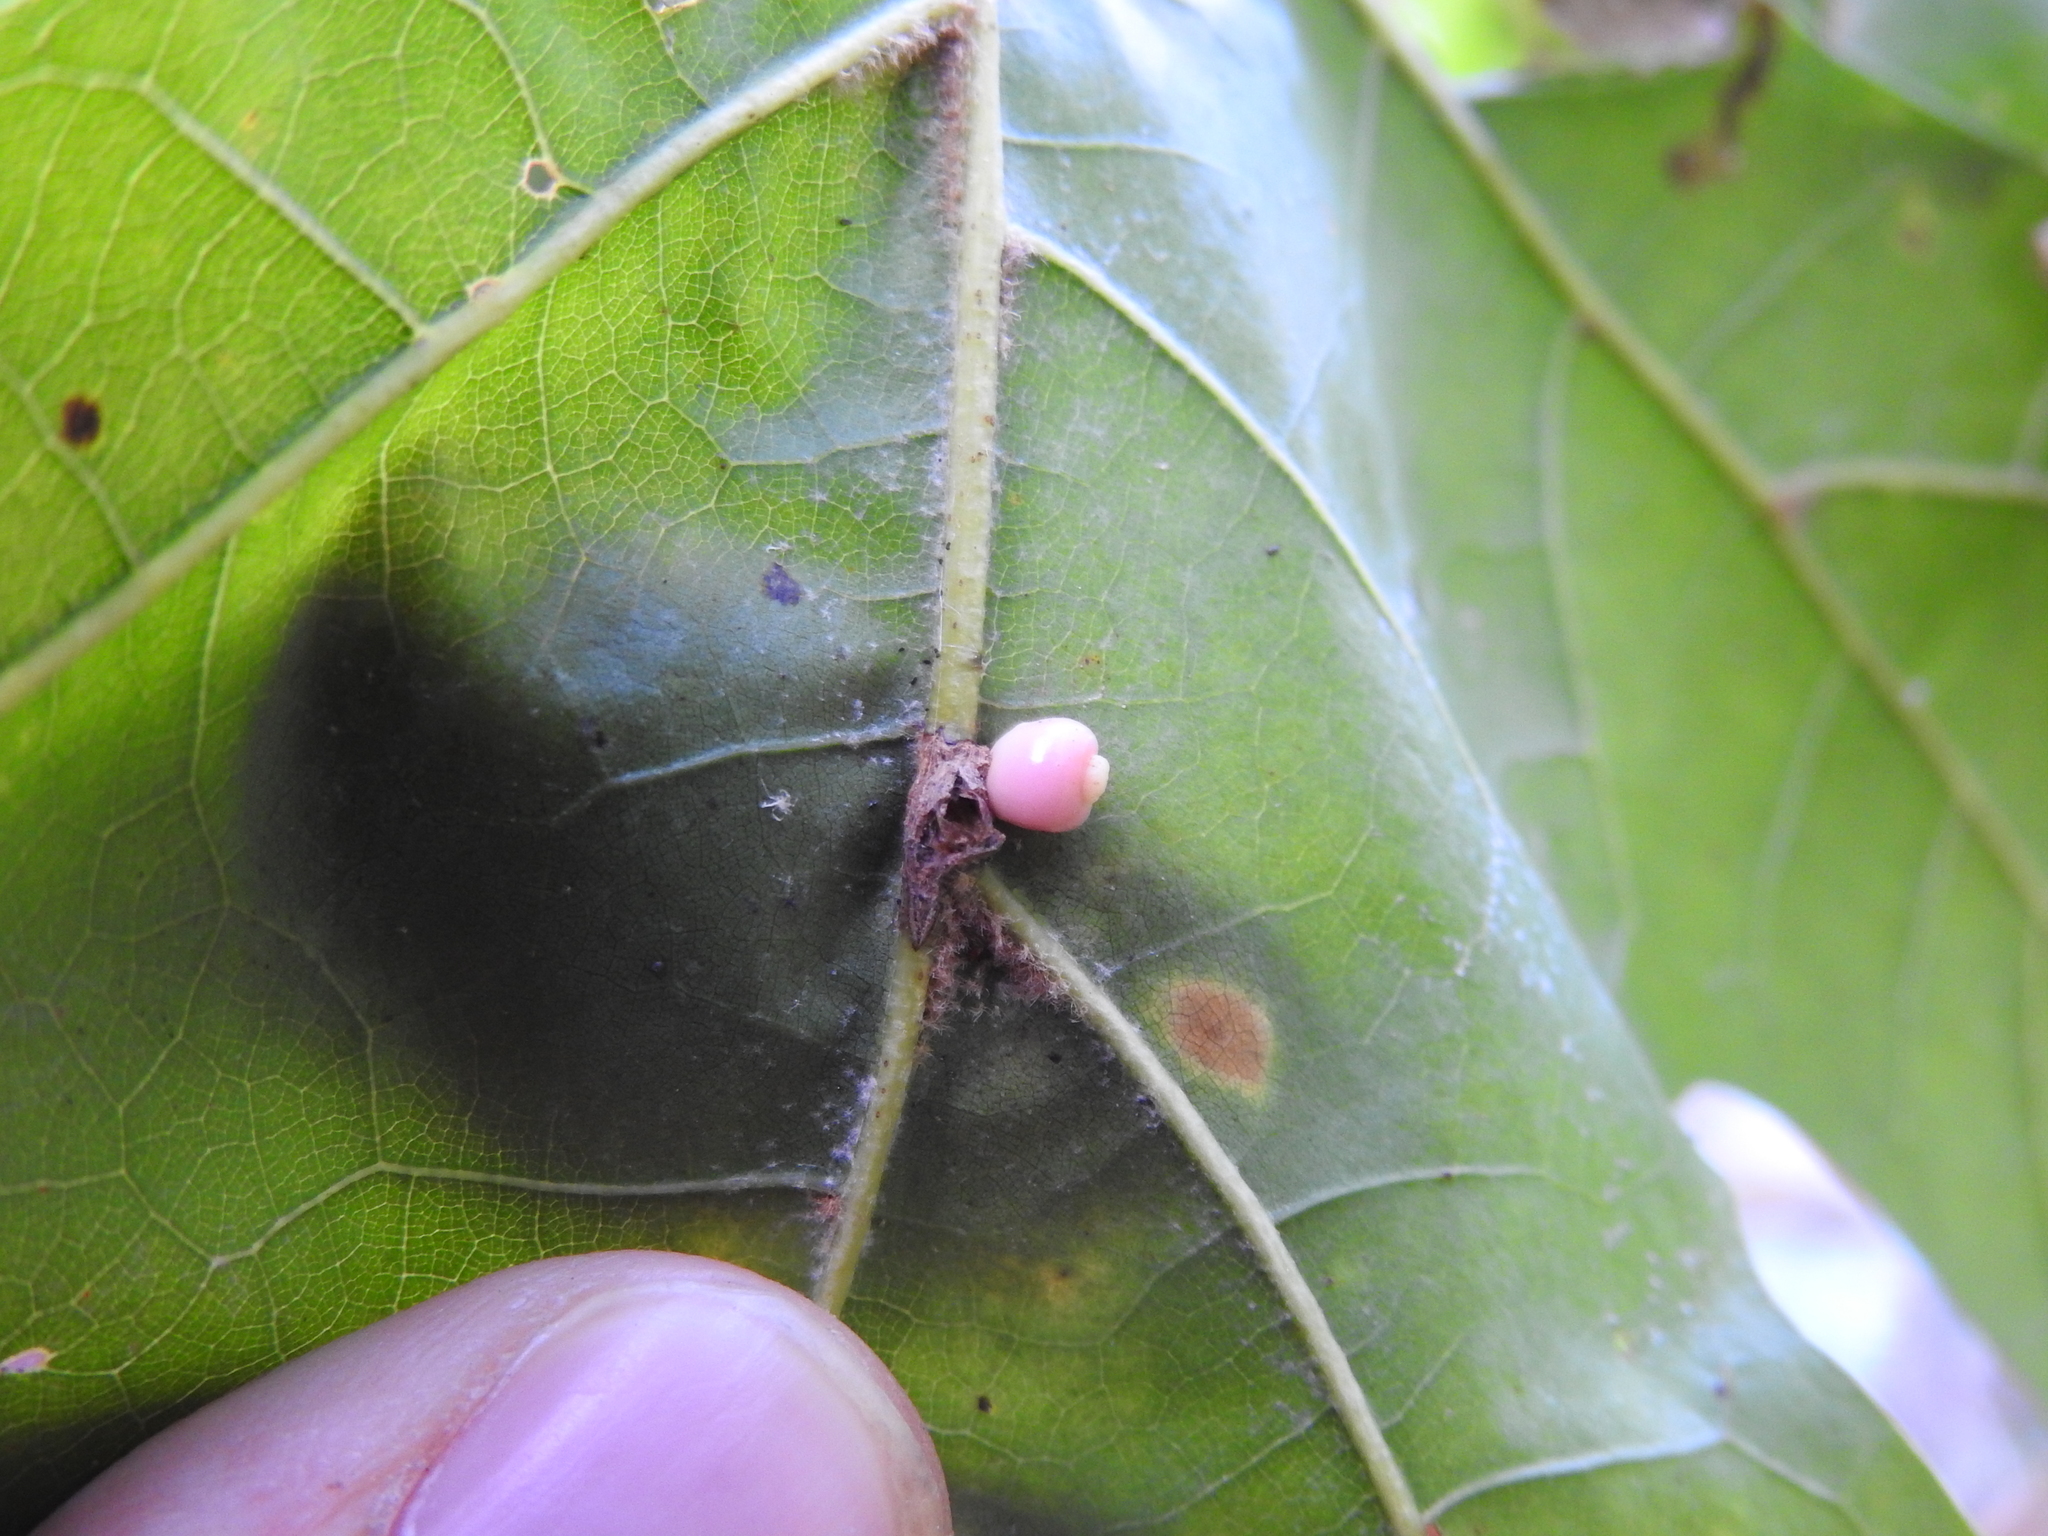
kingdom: Animalia
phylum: Arthropoda
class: Insecta
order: Hymenoptera
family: Cynipidae
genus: Kokkocynips
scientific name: Kokkocynips decidua
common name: Oak wheat gall
